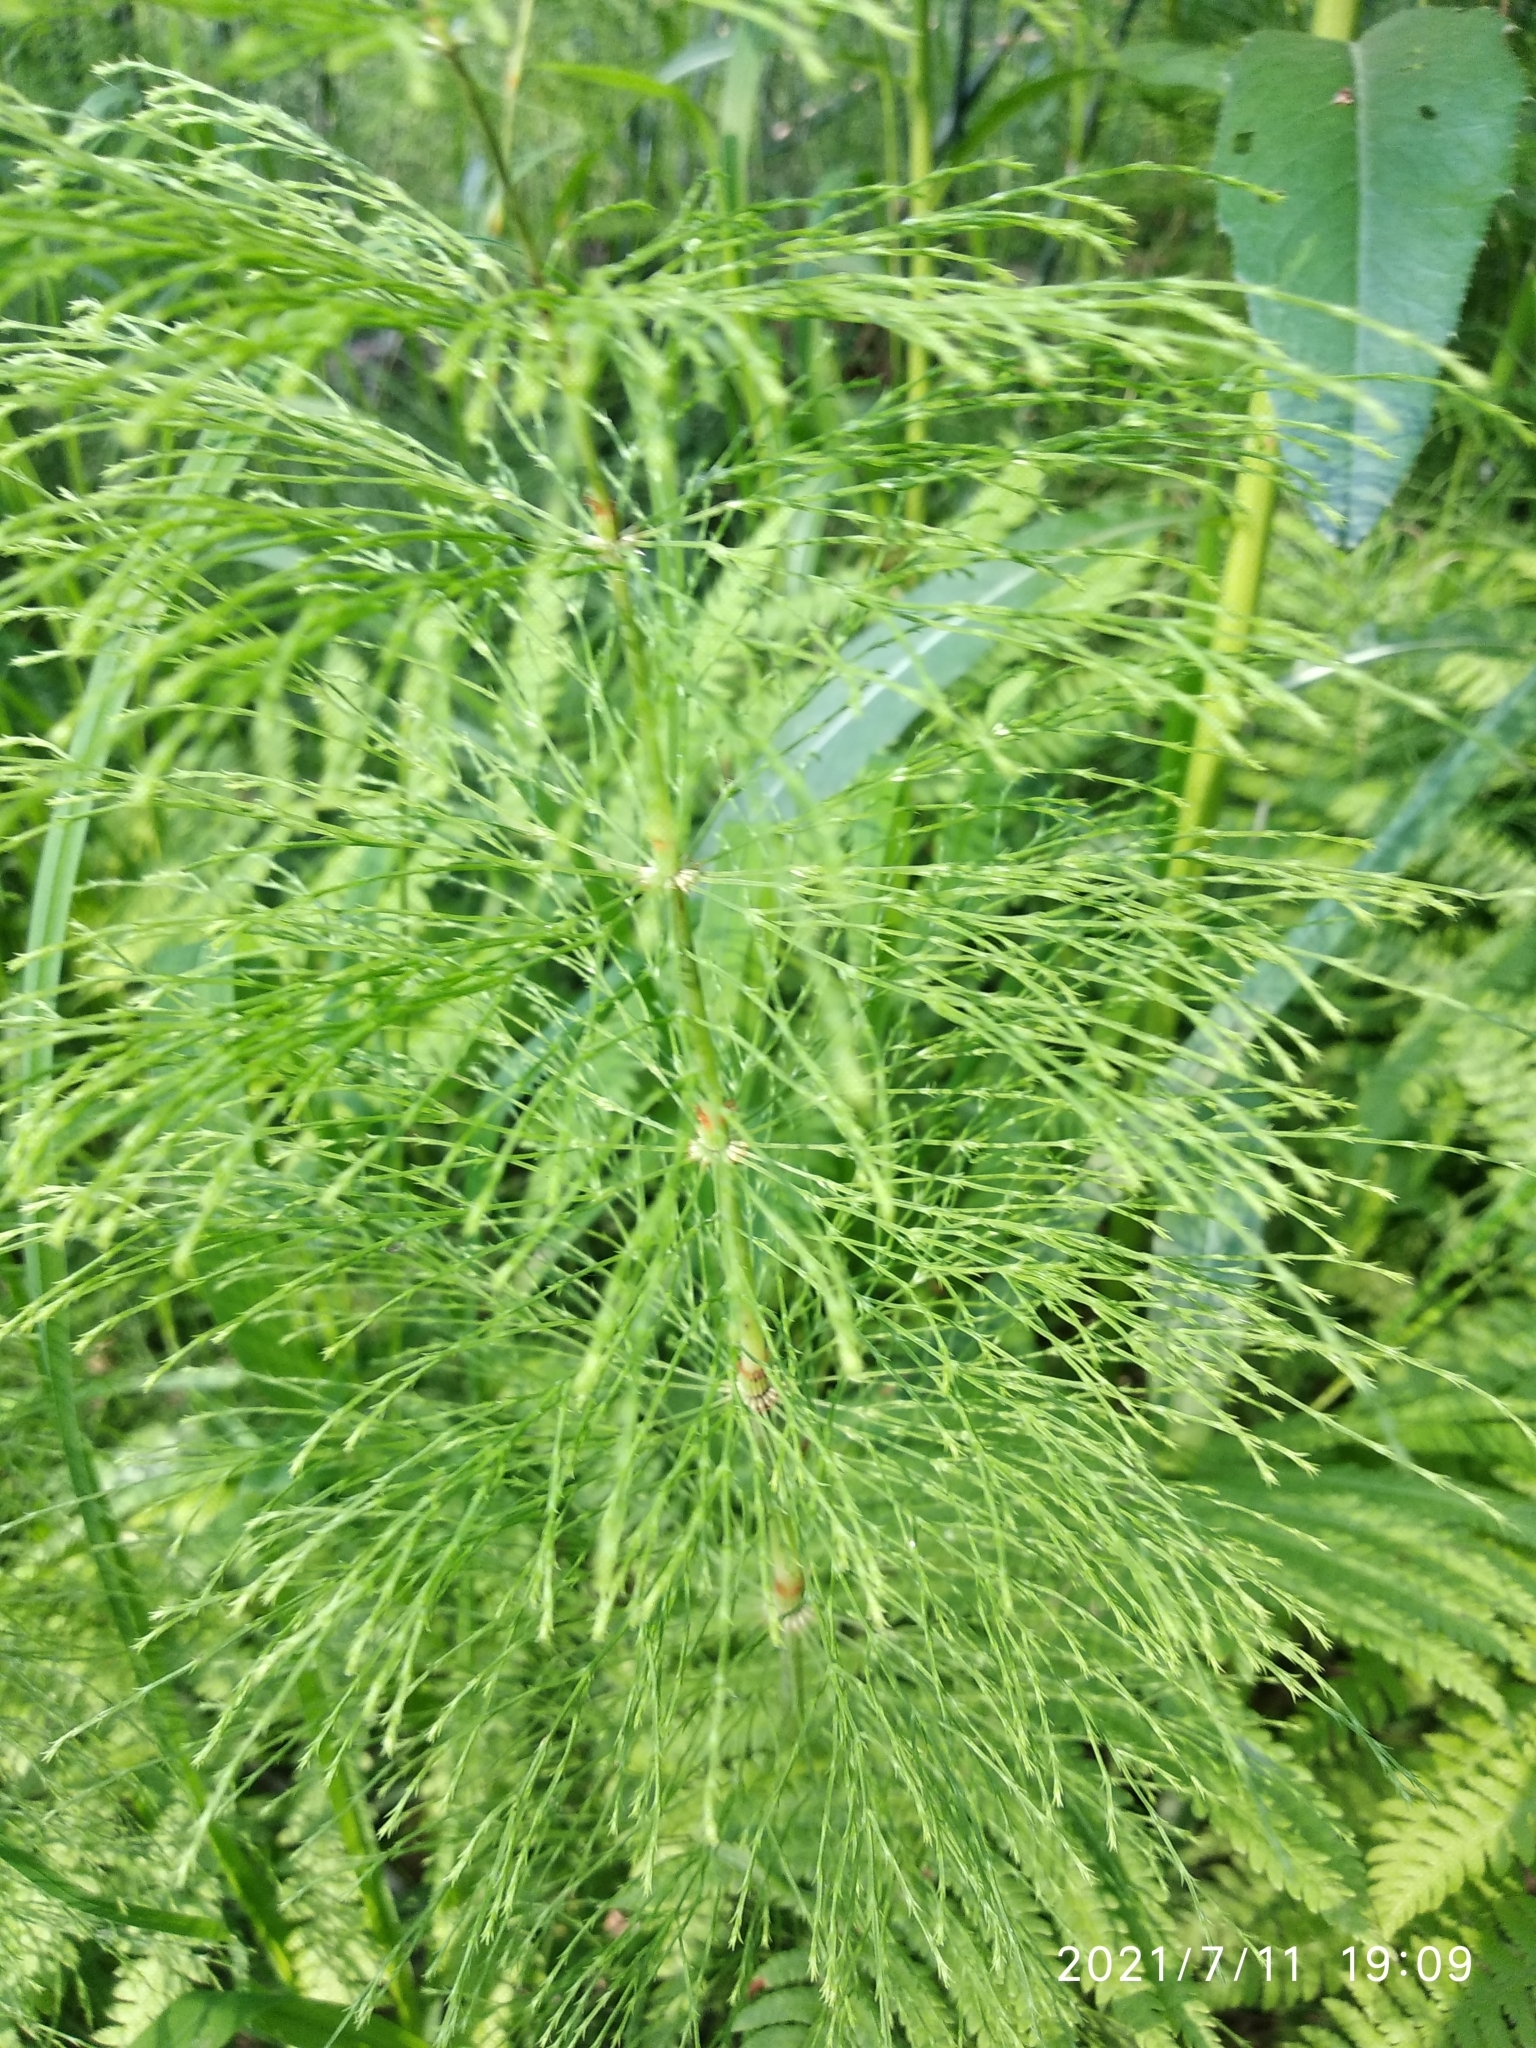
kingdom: Plantae
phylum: Tracheophyta
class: Polypodiopsida
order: Equisetales
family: Equisetaceae
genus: Equisetum
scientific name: Equisetum sylvaticum
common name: Wood horsetail
